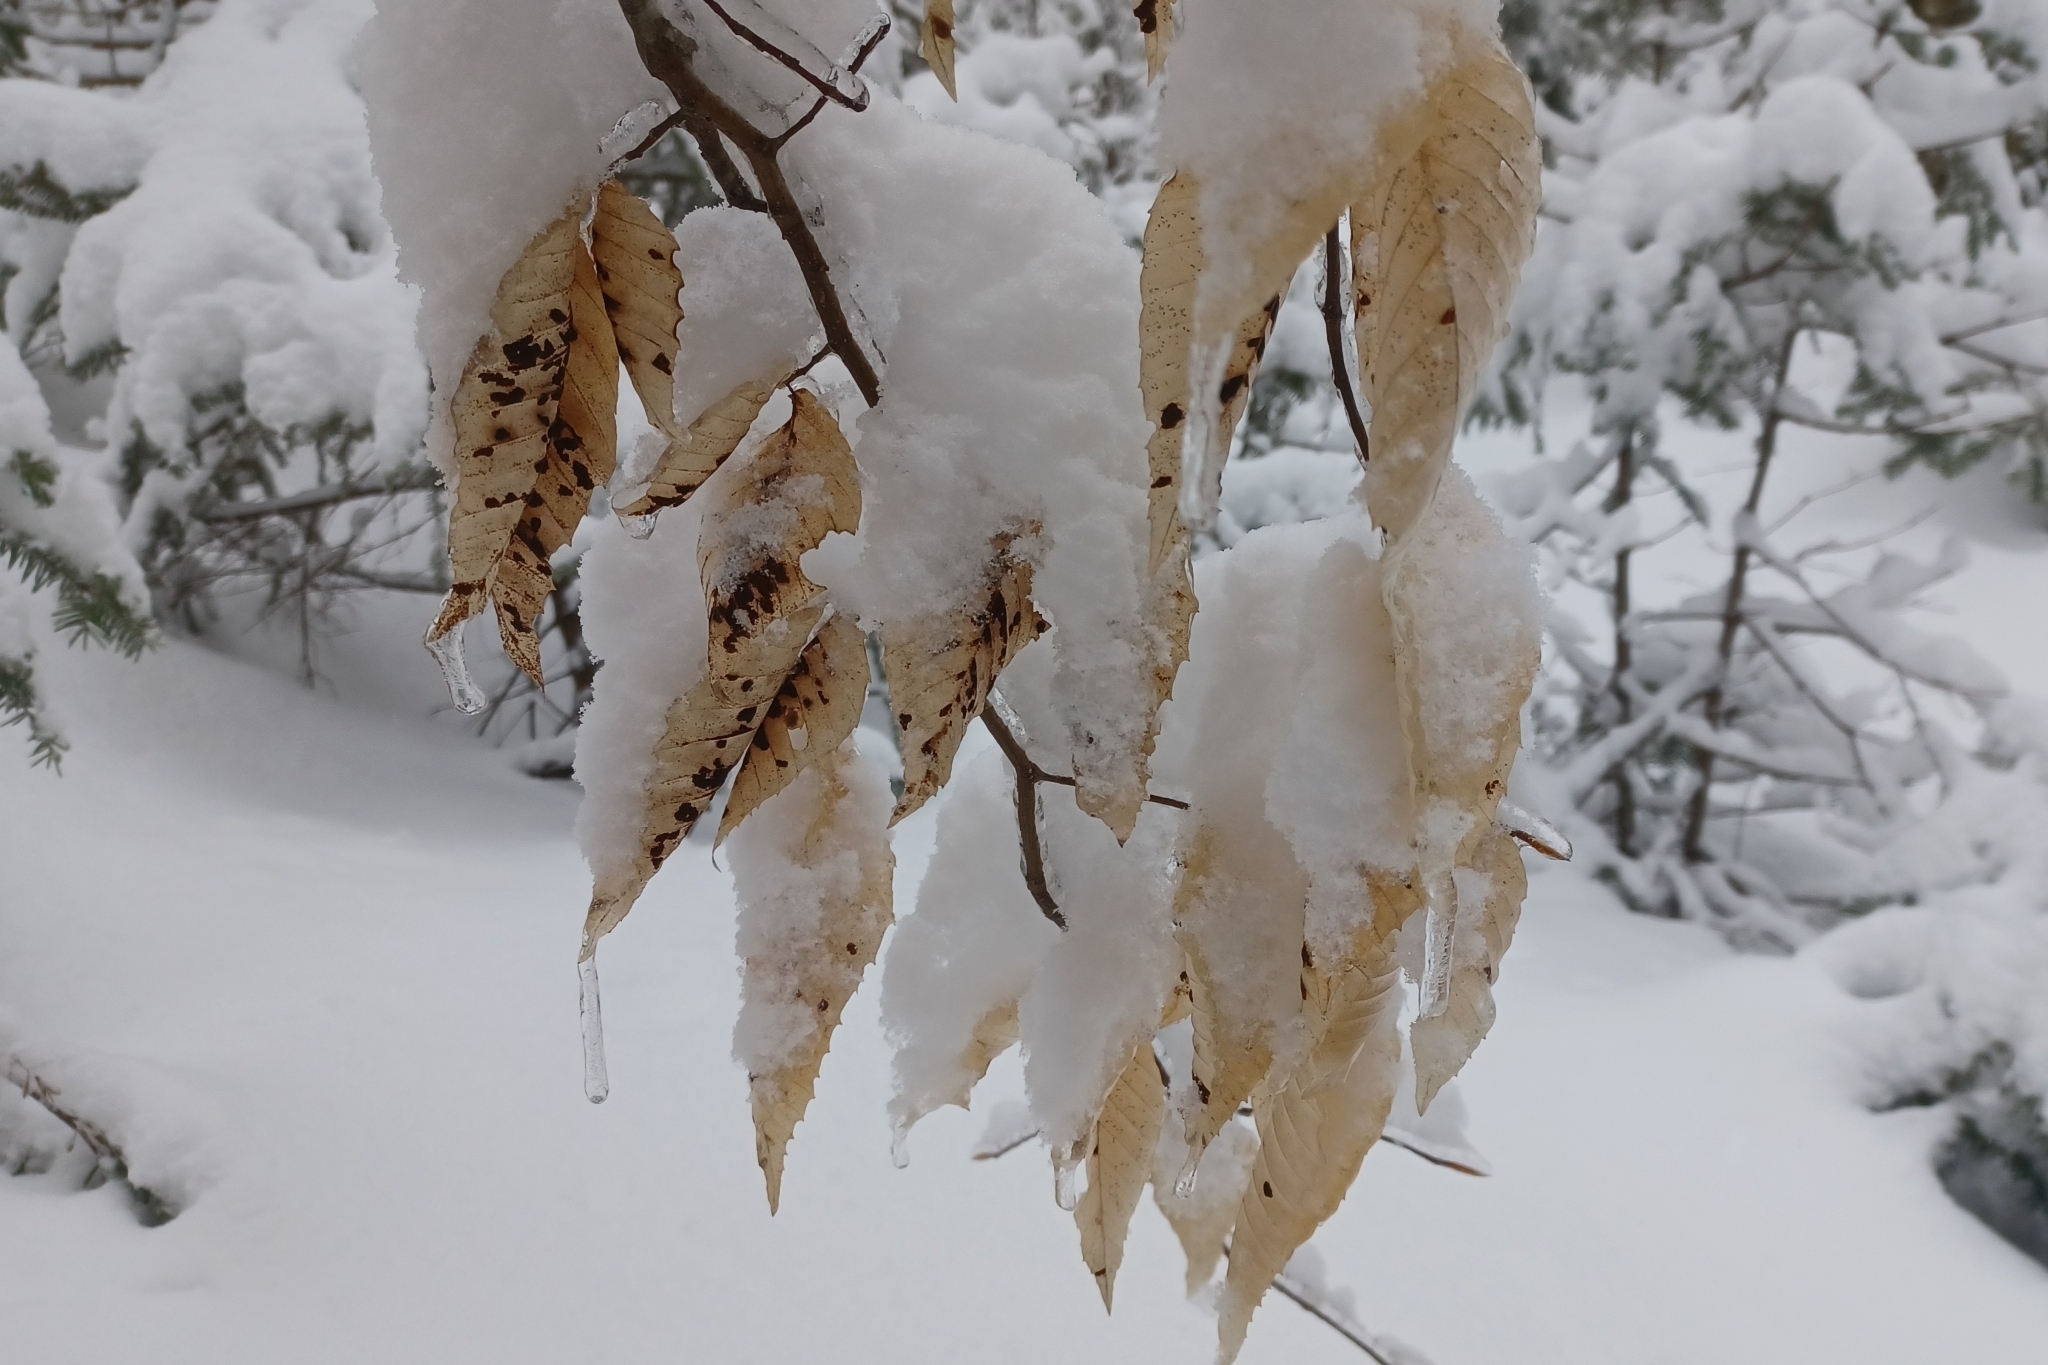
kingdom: Animalia
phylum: Arthropoda
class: Arachnida
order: Trombidiformes
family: Eriophyidae
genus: Acalitus
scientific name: Acalitus
